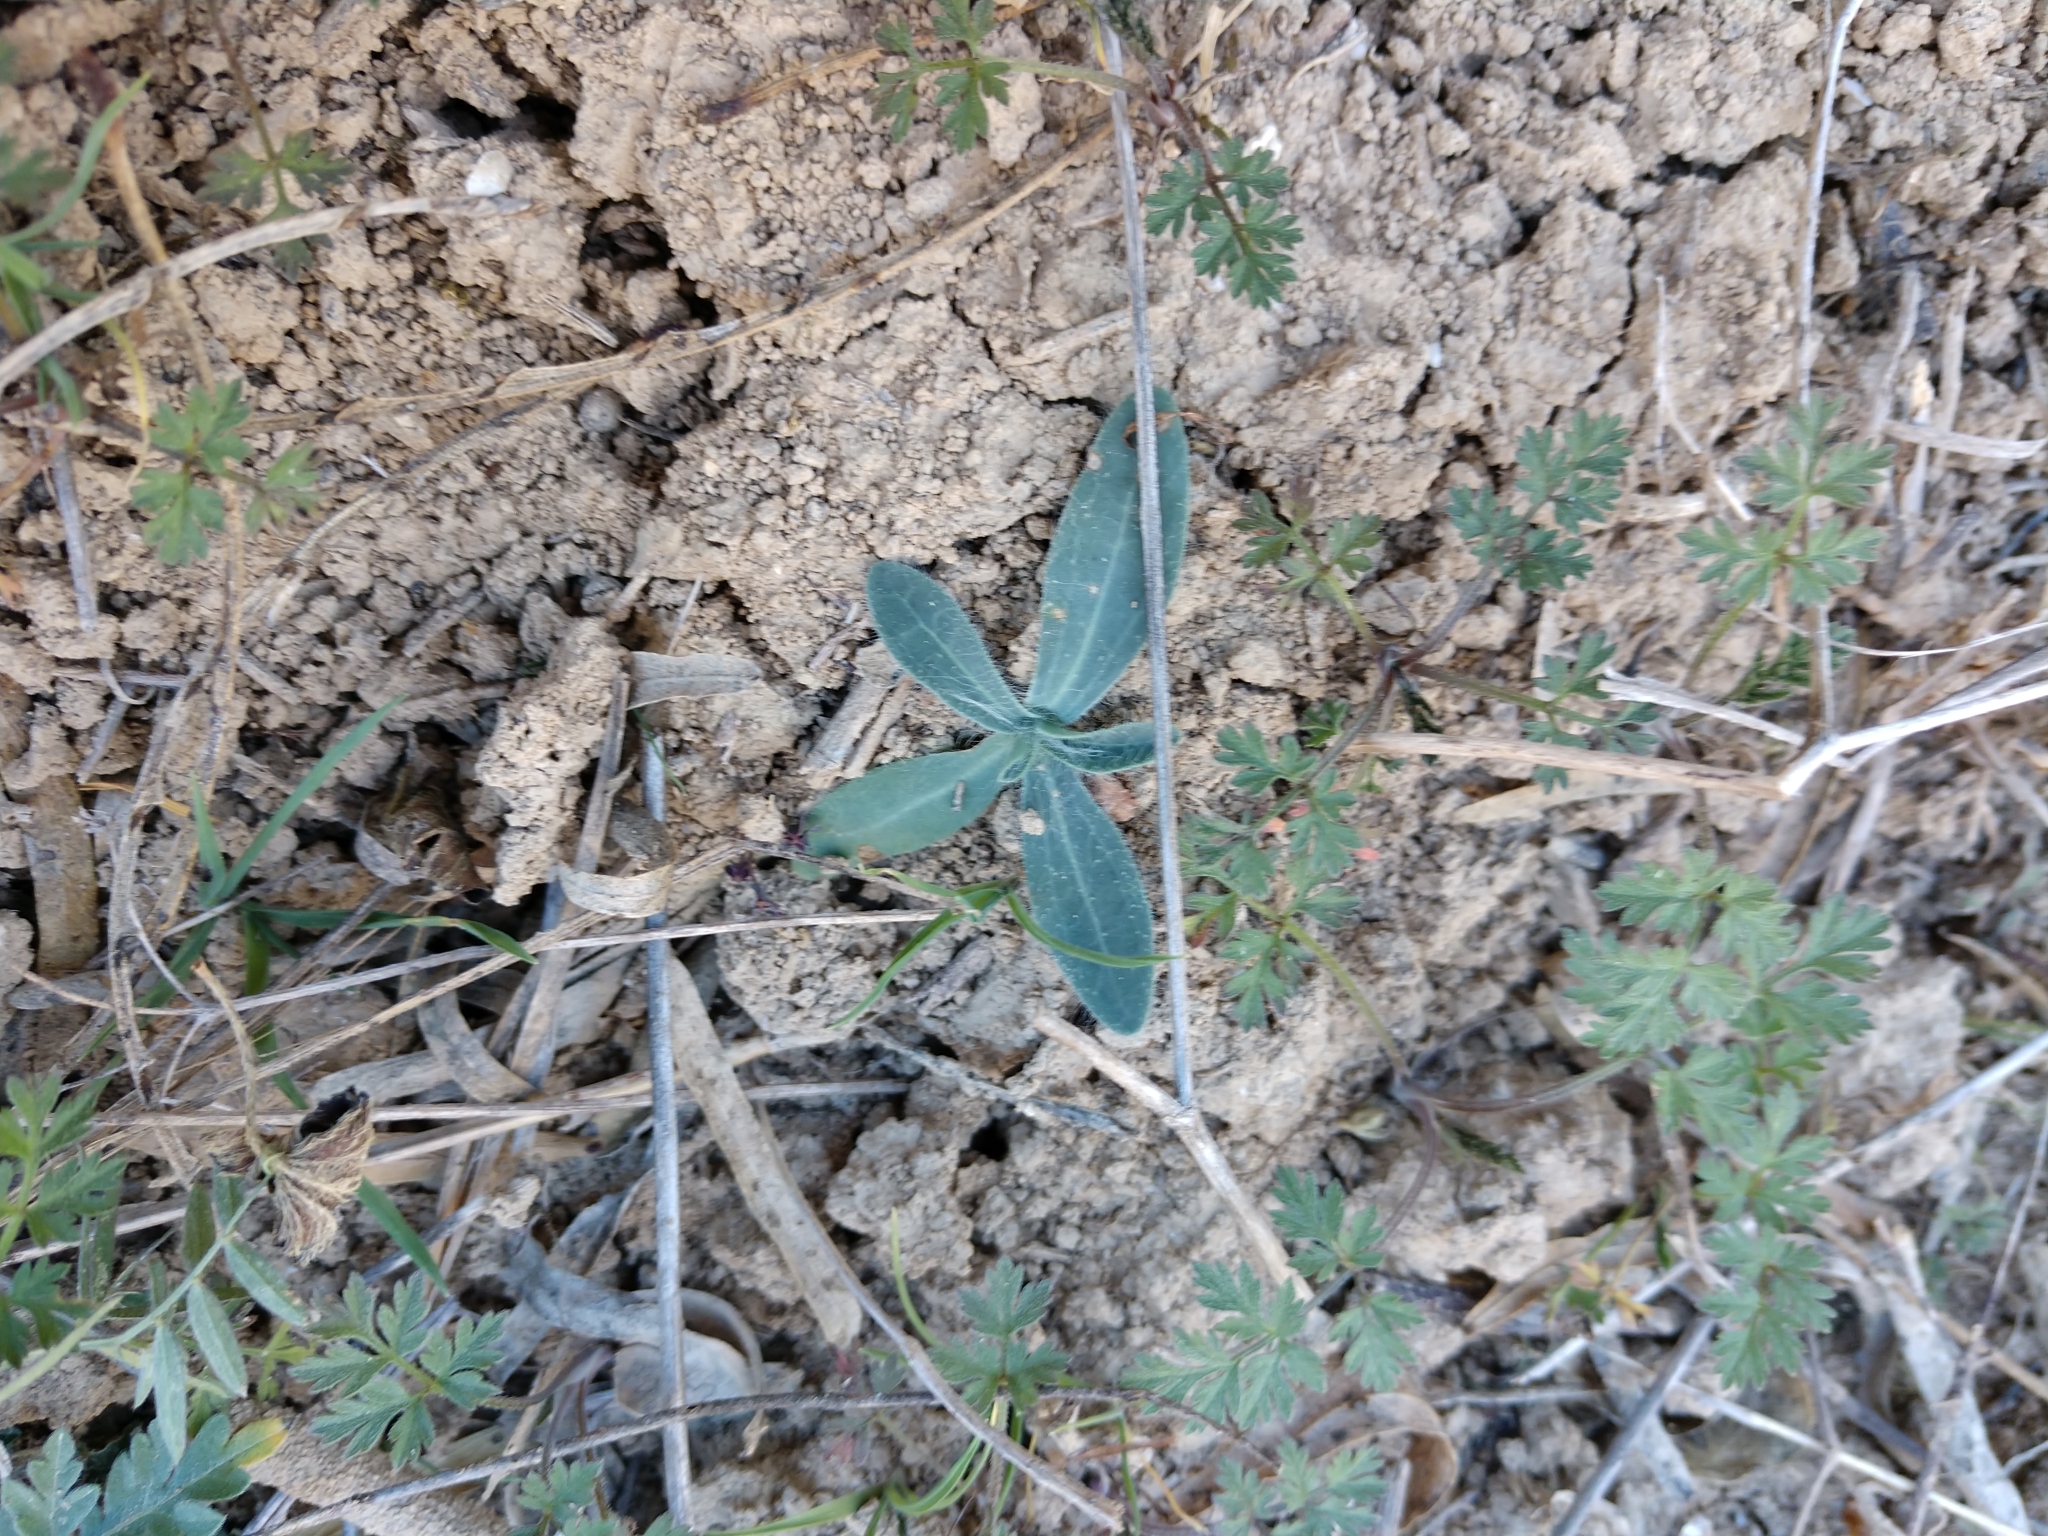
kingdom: Plantae
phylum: Tracheophyta
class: Magnoliopsida
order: Asterales
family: Asteraceae
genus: Amblyolepis
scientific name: Amblyolepis setigera
